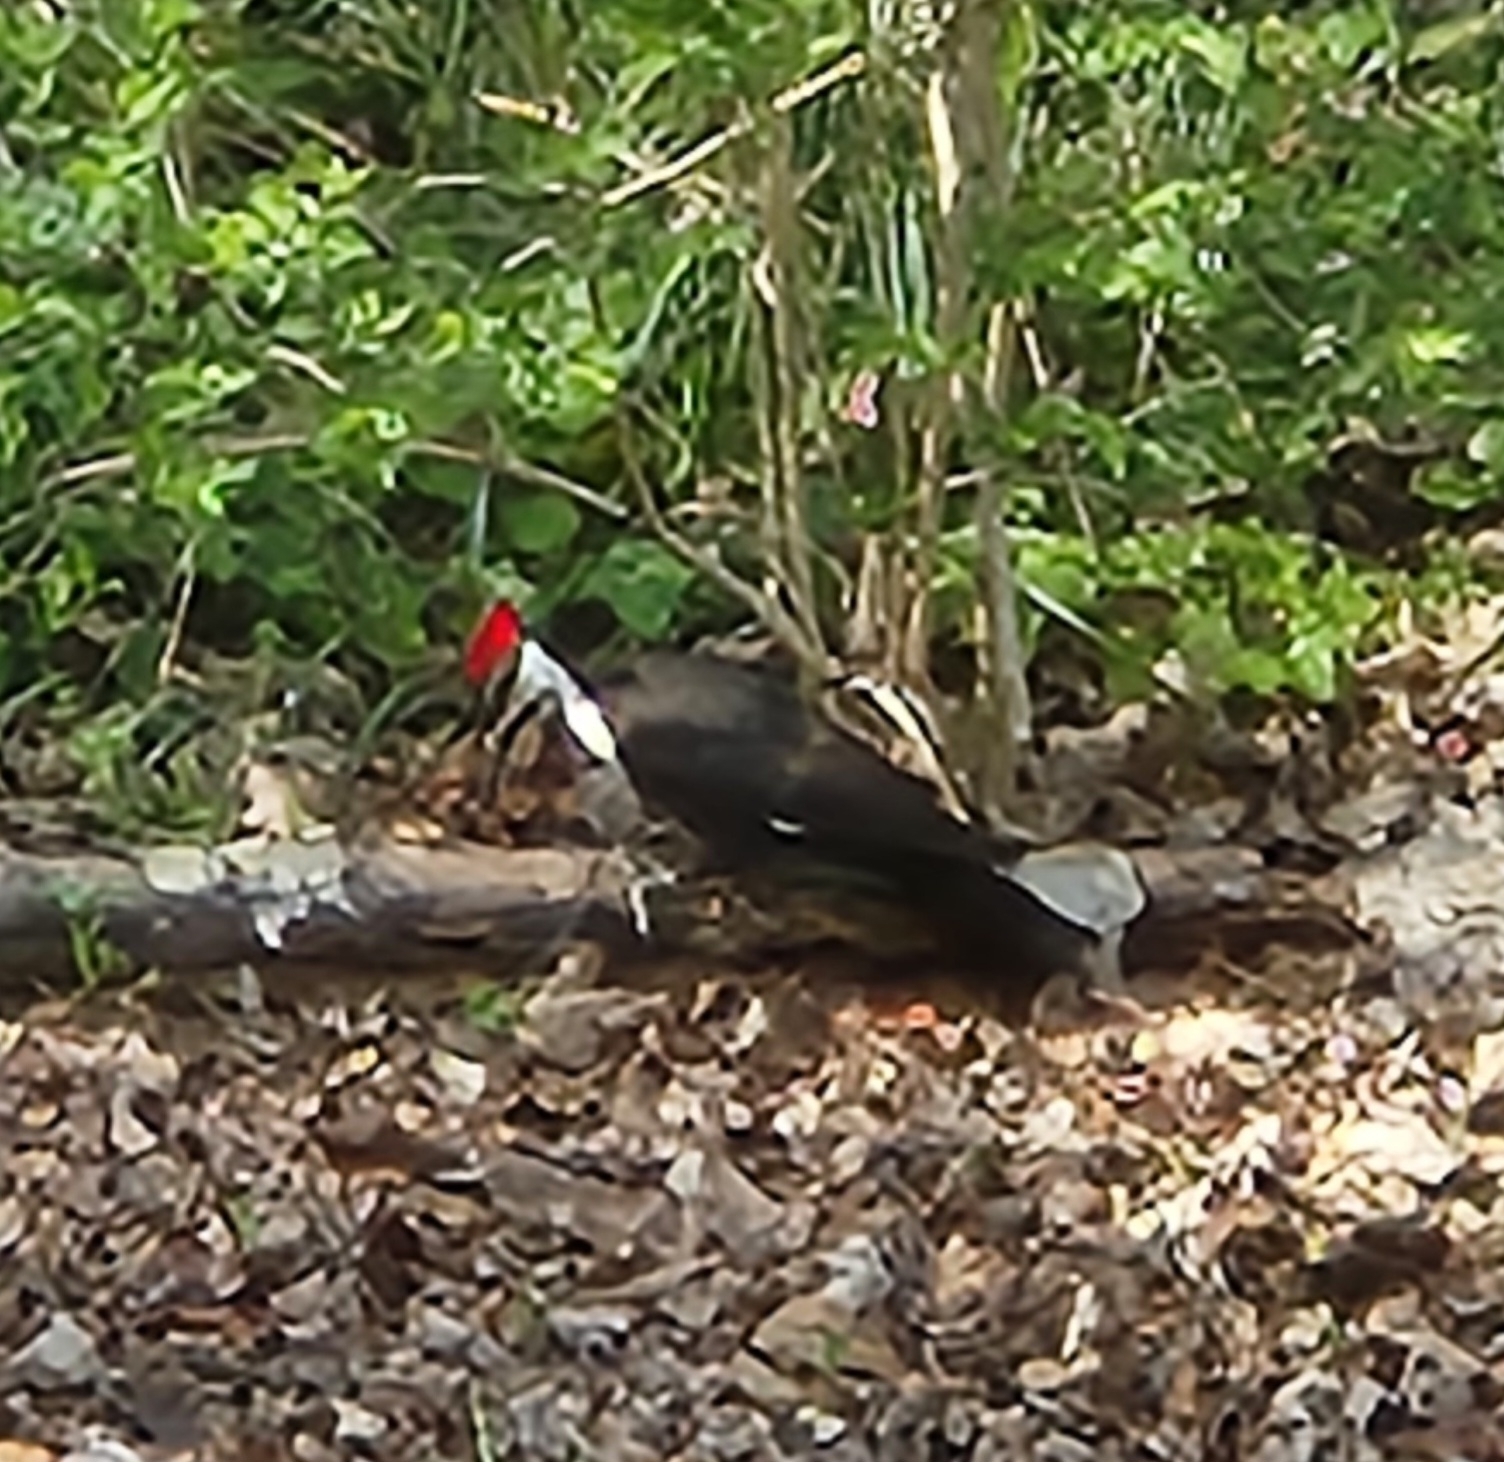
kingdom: Animalia
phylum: Chordata
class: Aves
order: Piciformes
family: Picidae
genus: Dryocopus
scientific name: Dryocopus pileatus
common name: Pileated woodpecker
